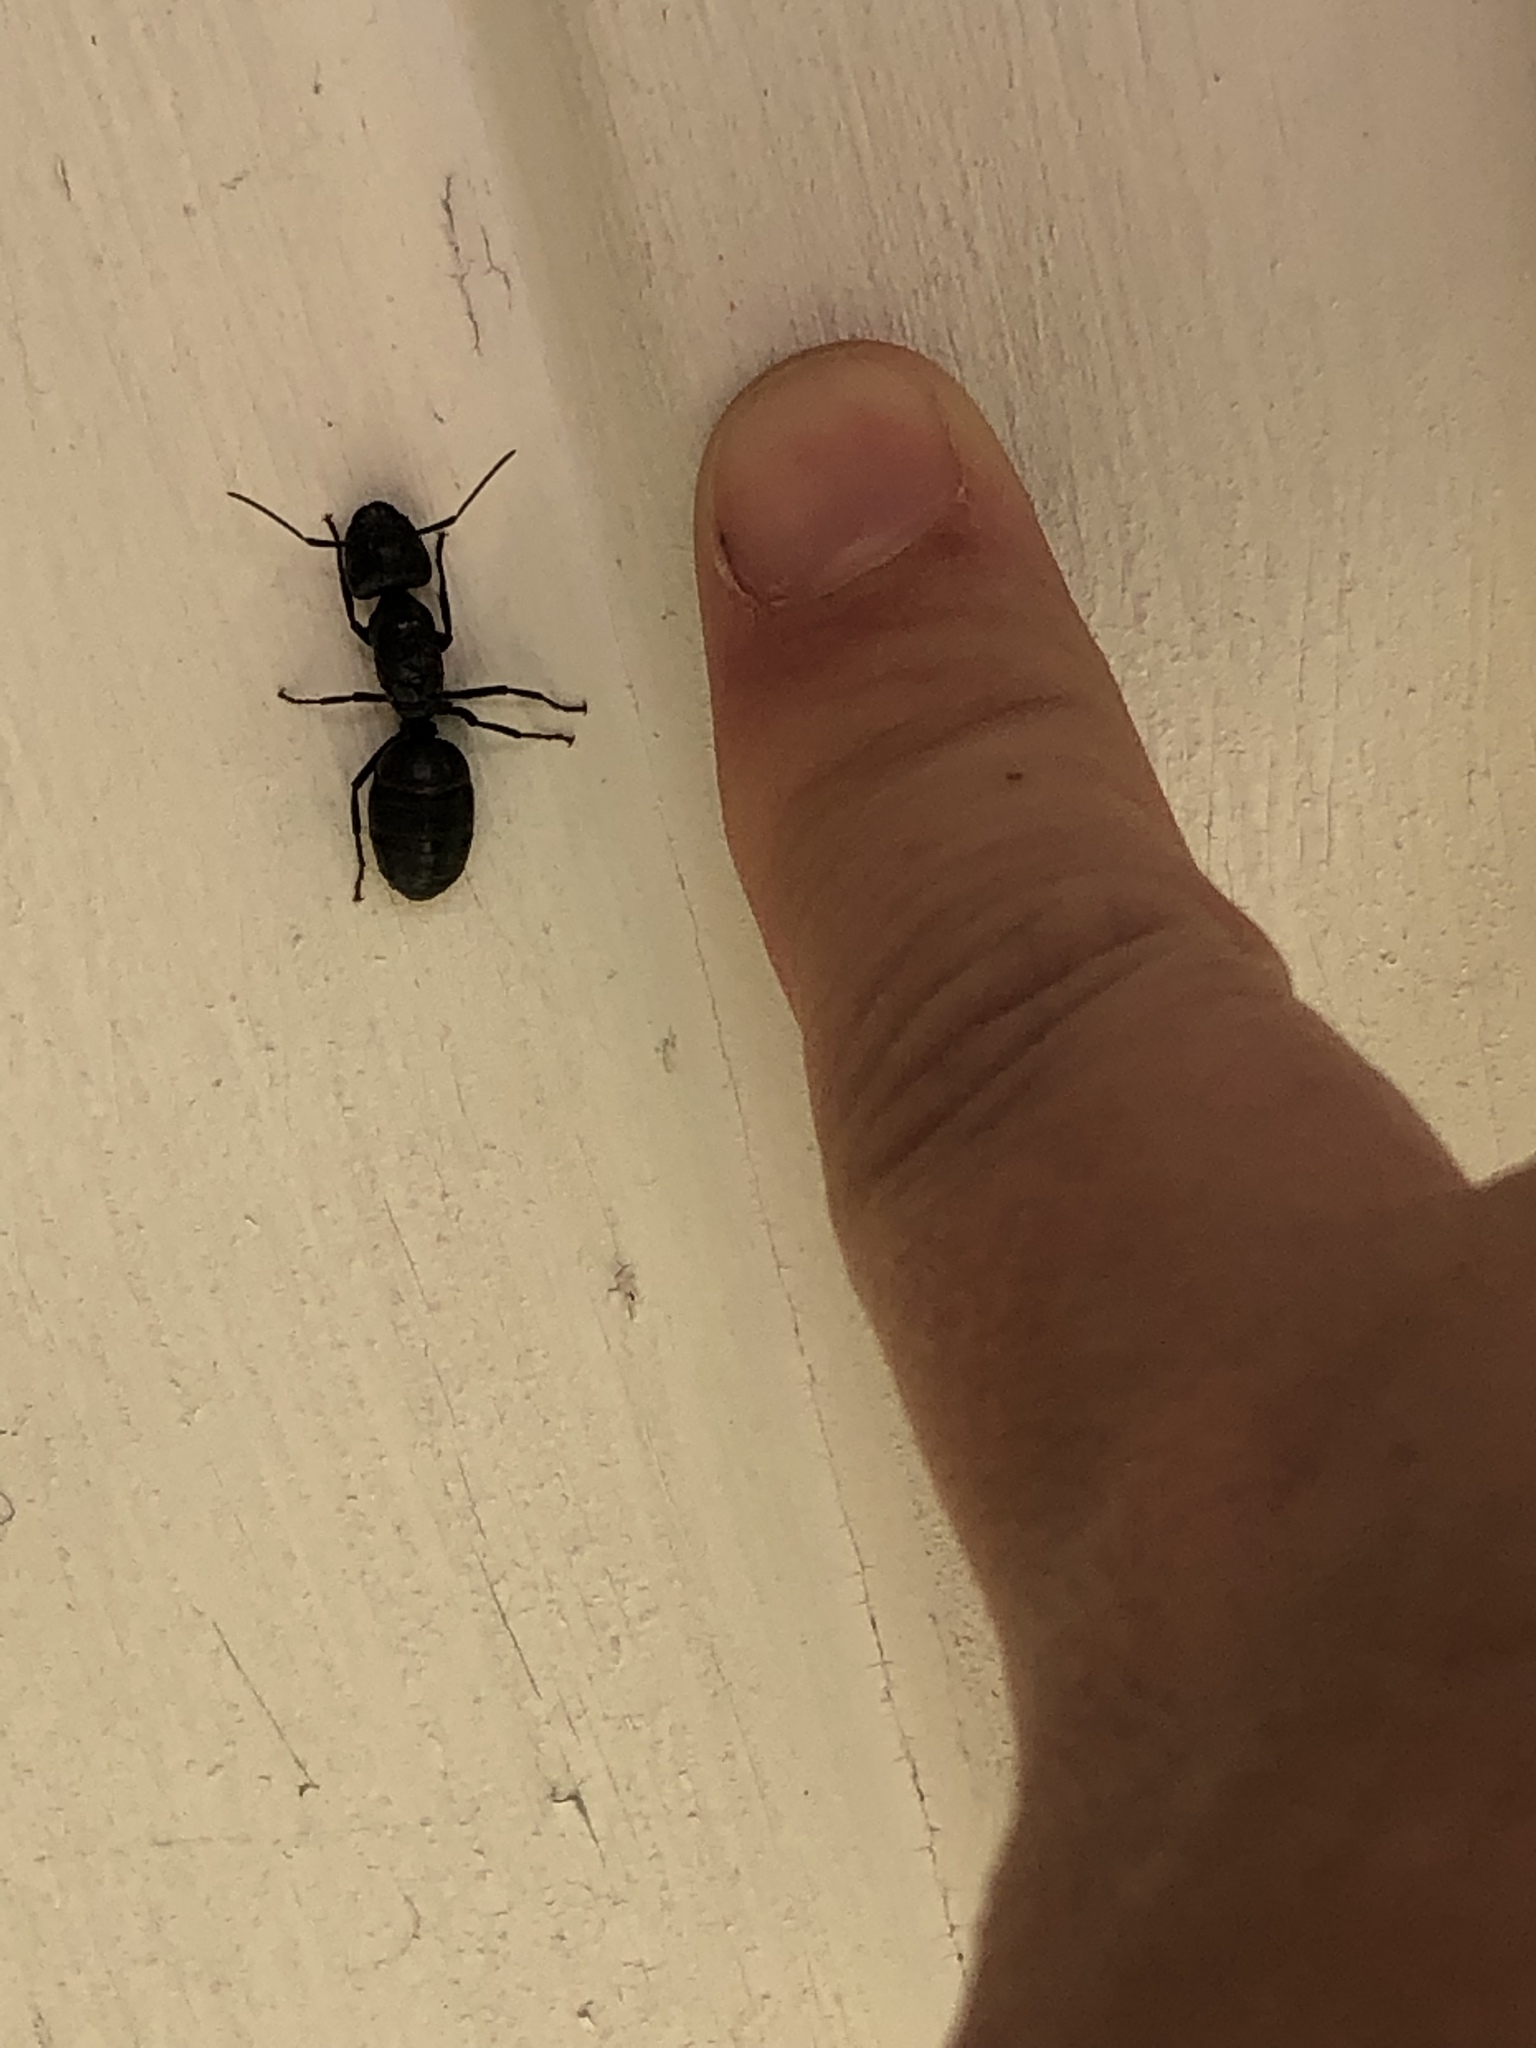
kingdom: Animalia
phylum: Arthropoda
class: Insecta
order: Hymenoptera
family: Formicidae
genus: Camponotus
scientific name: Camponotus pennsylvanicus
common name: Black carpenter ant
